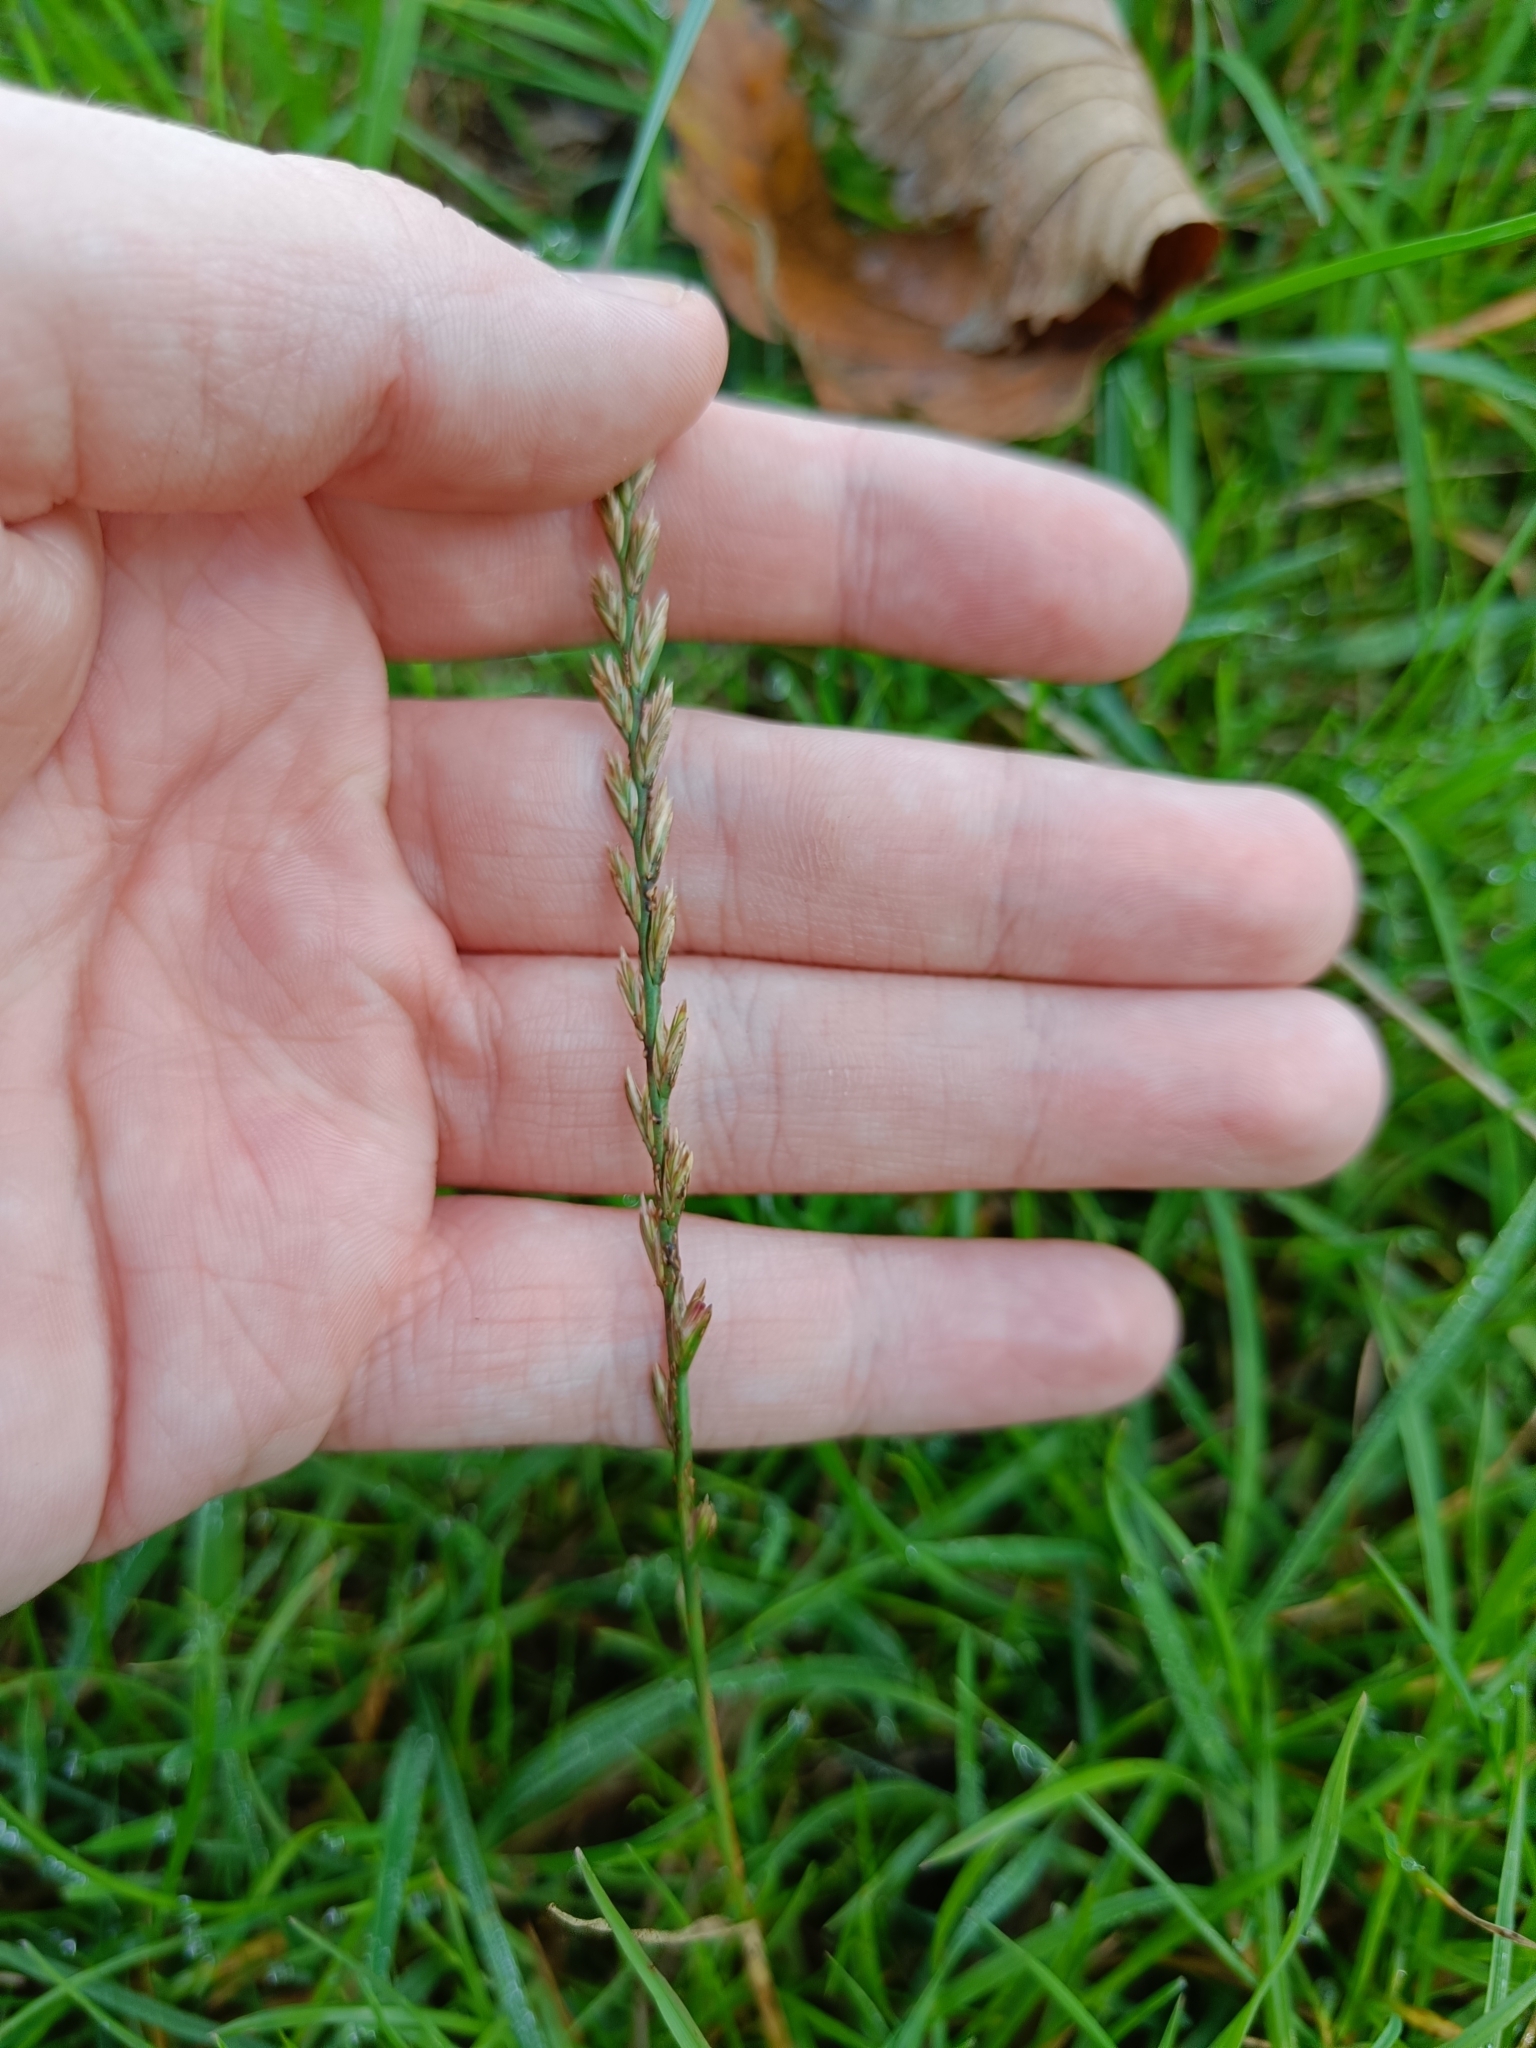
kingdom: Plantae
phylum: Tracheophyta
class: Liliopsida
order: Poales
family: Poaceae
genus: Lolium
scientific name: Lolium perenne
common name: Perennial ryegrass
